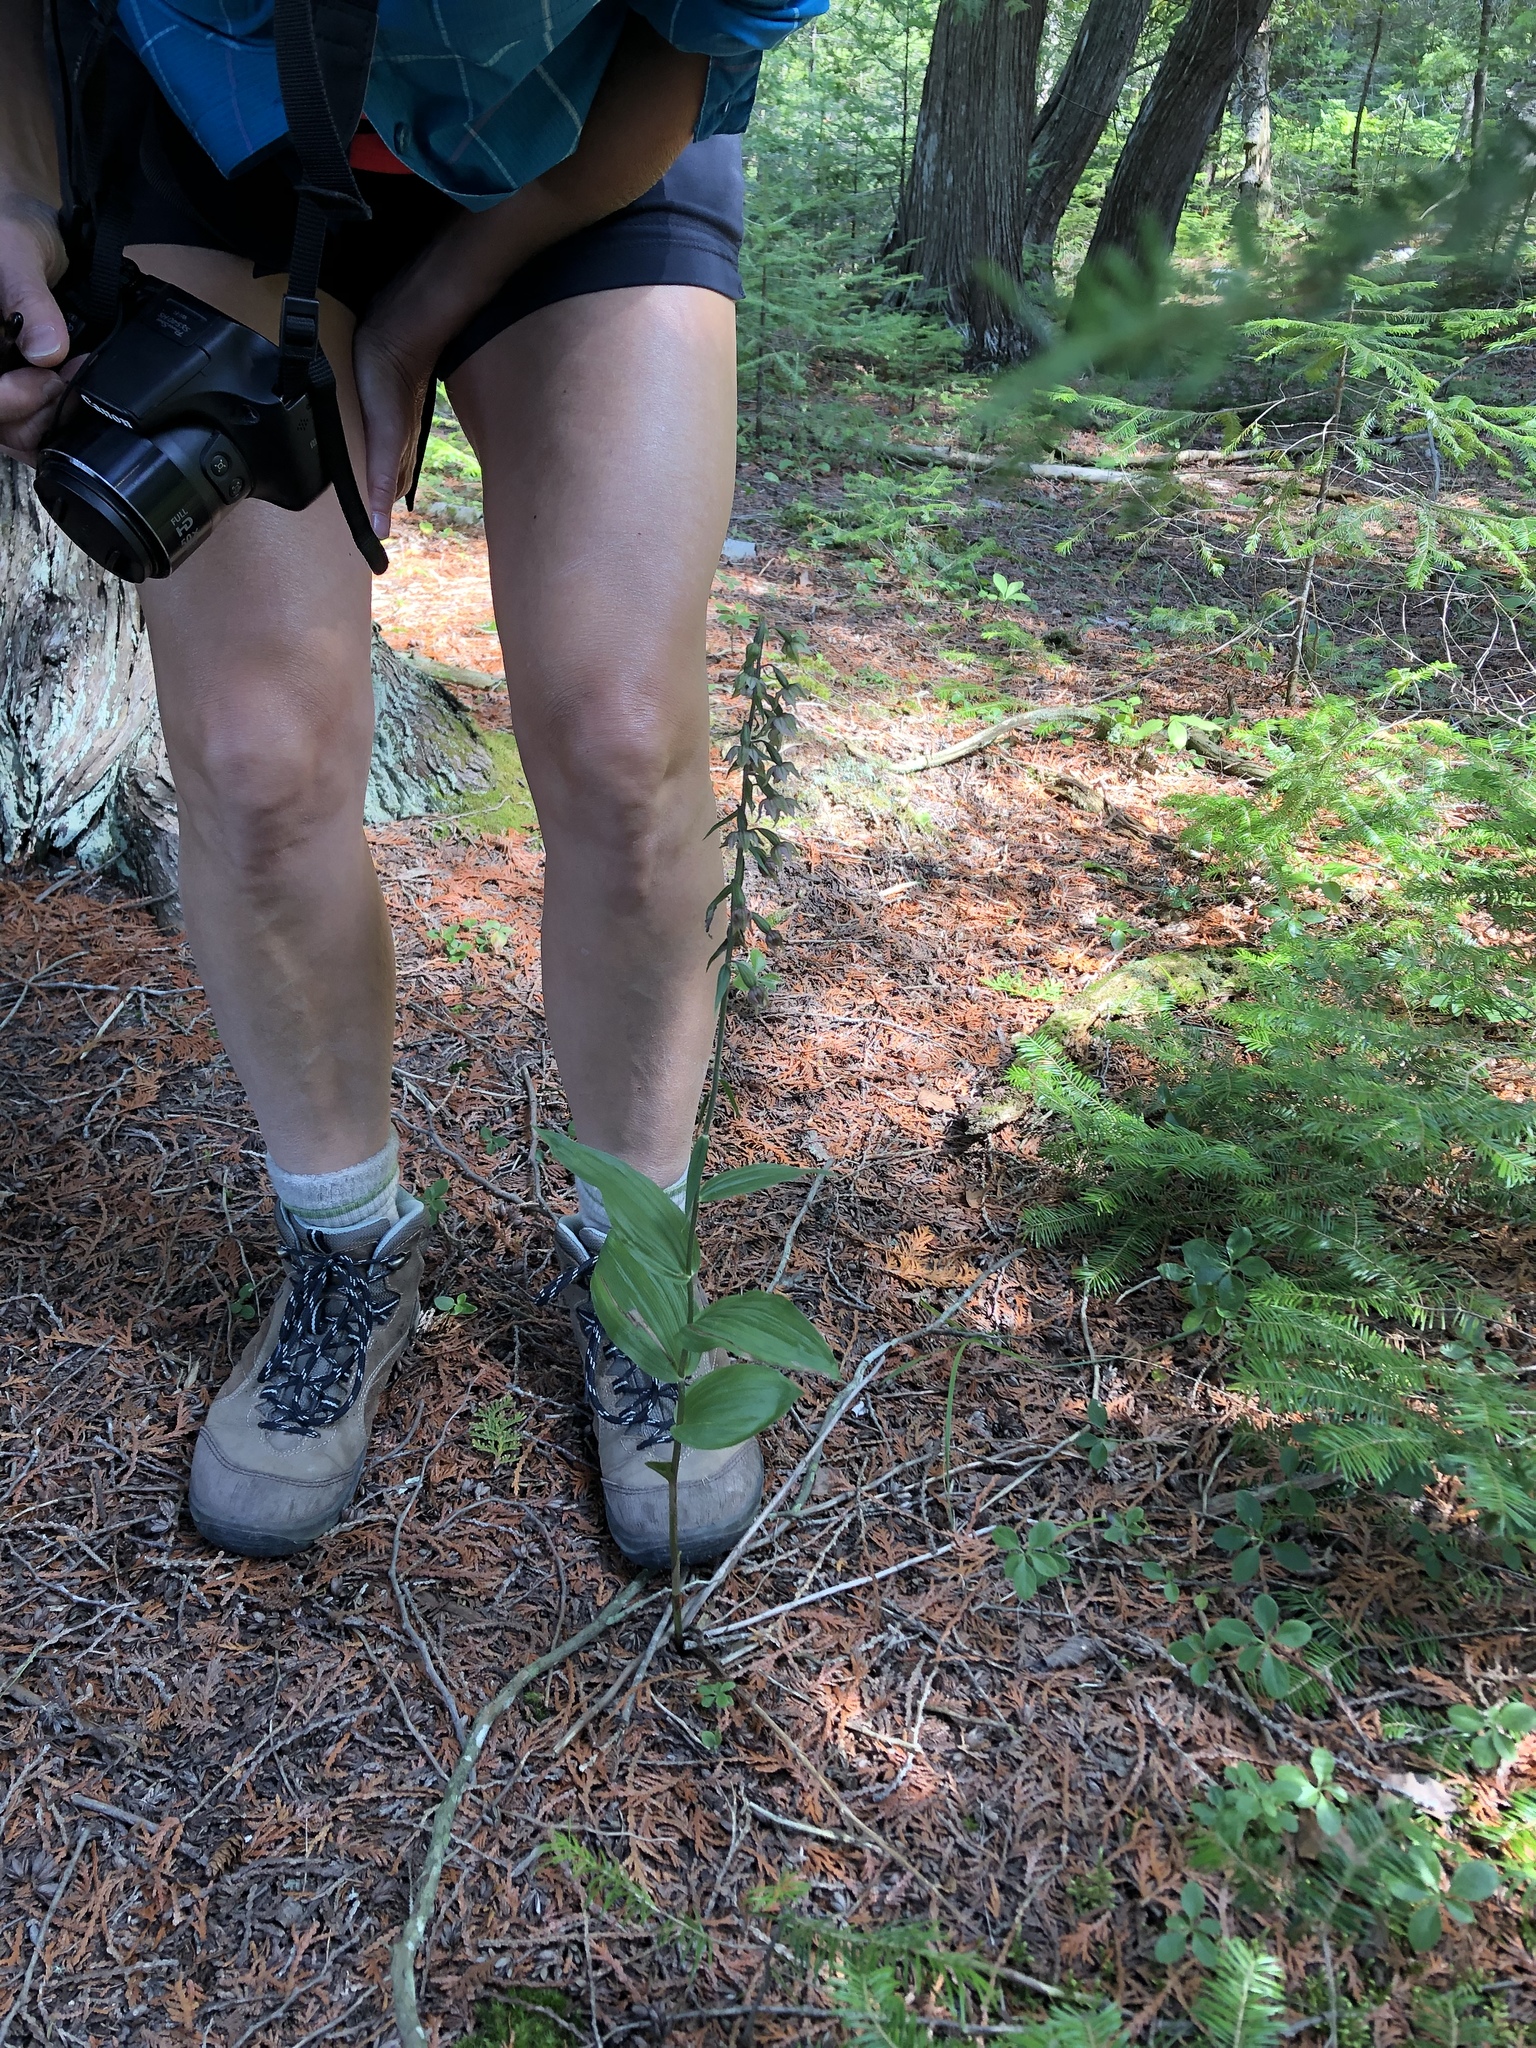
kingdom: Plantae
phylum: Tracheophyta
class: Liliopsida
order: Asparagales
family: Orchidaceae
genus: Epipactis
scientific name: Epipactis helleborine
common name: Broad-leaved helleborine
